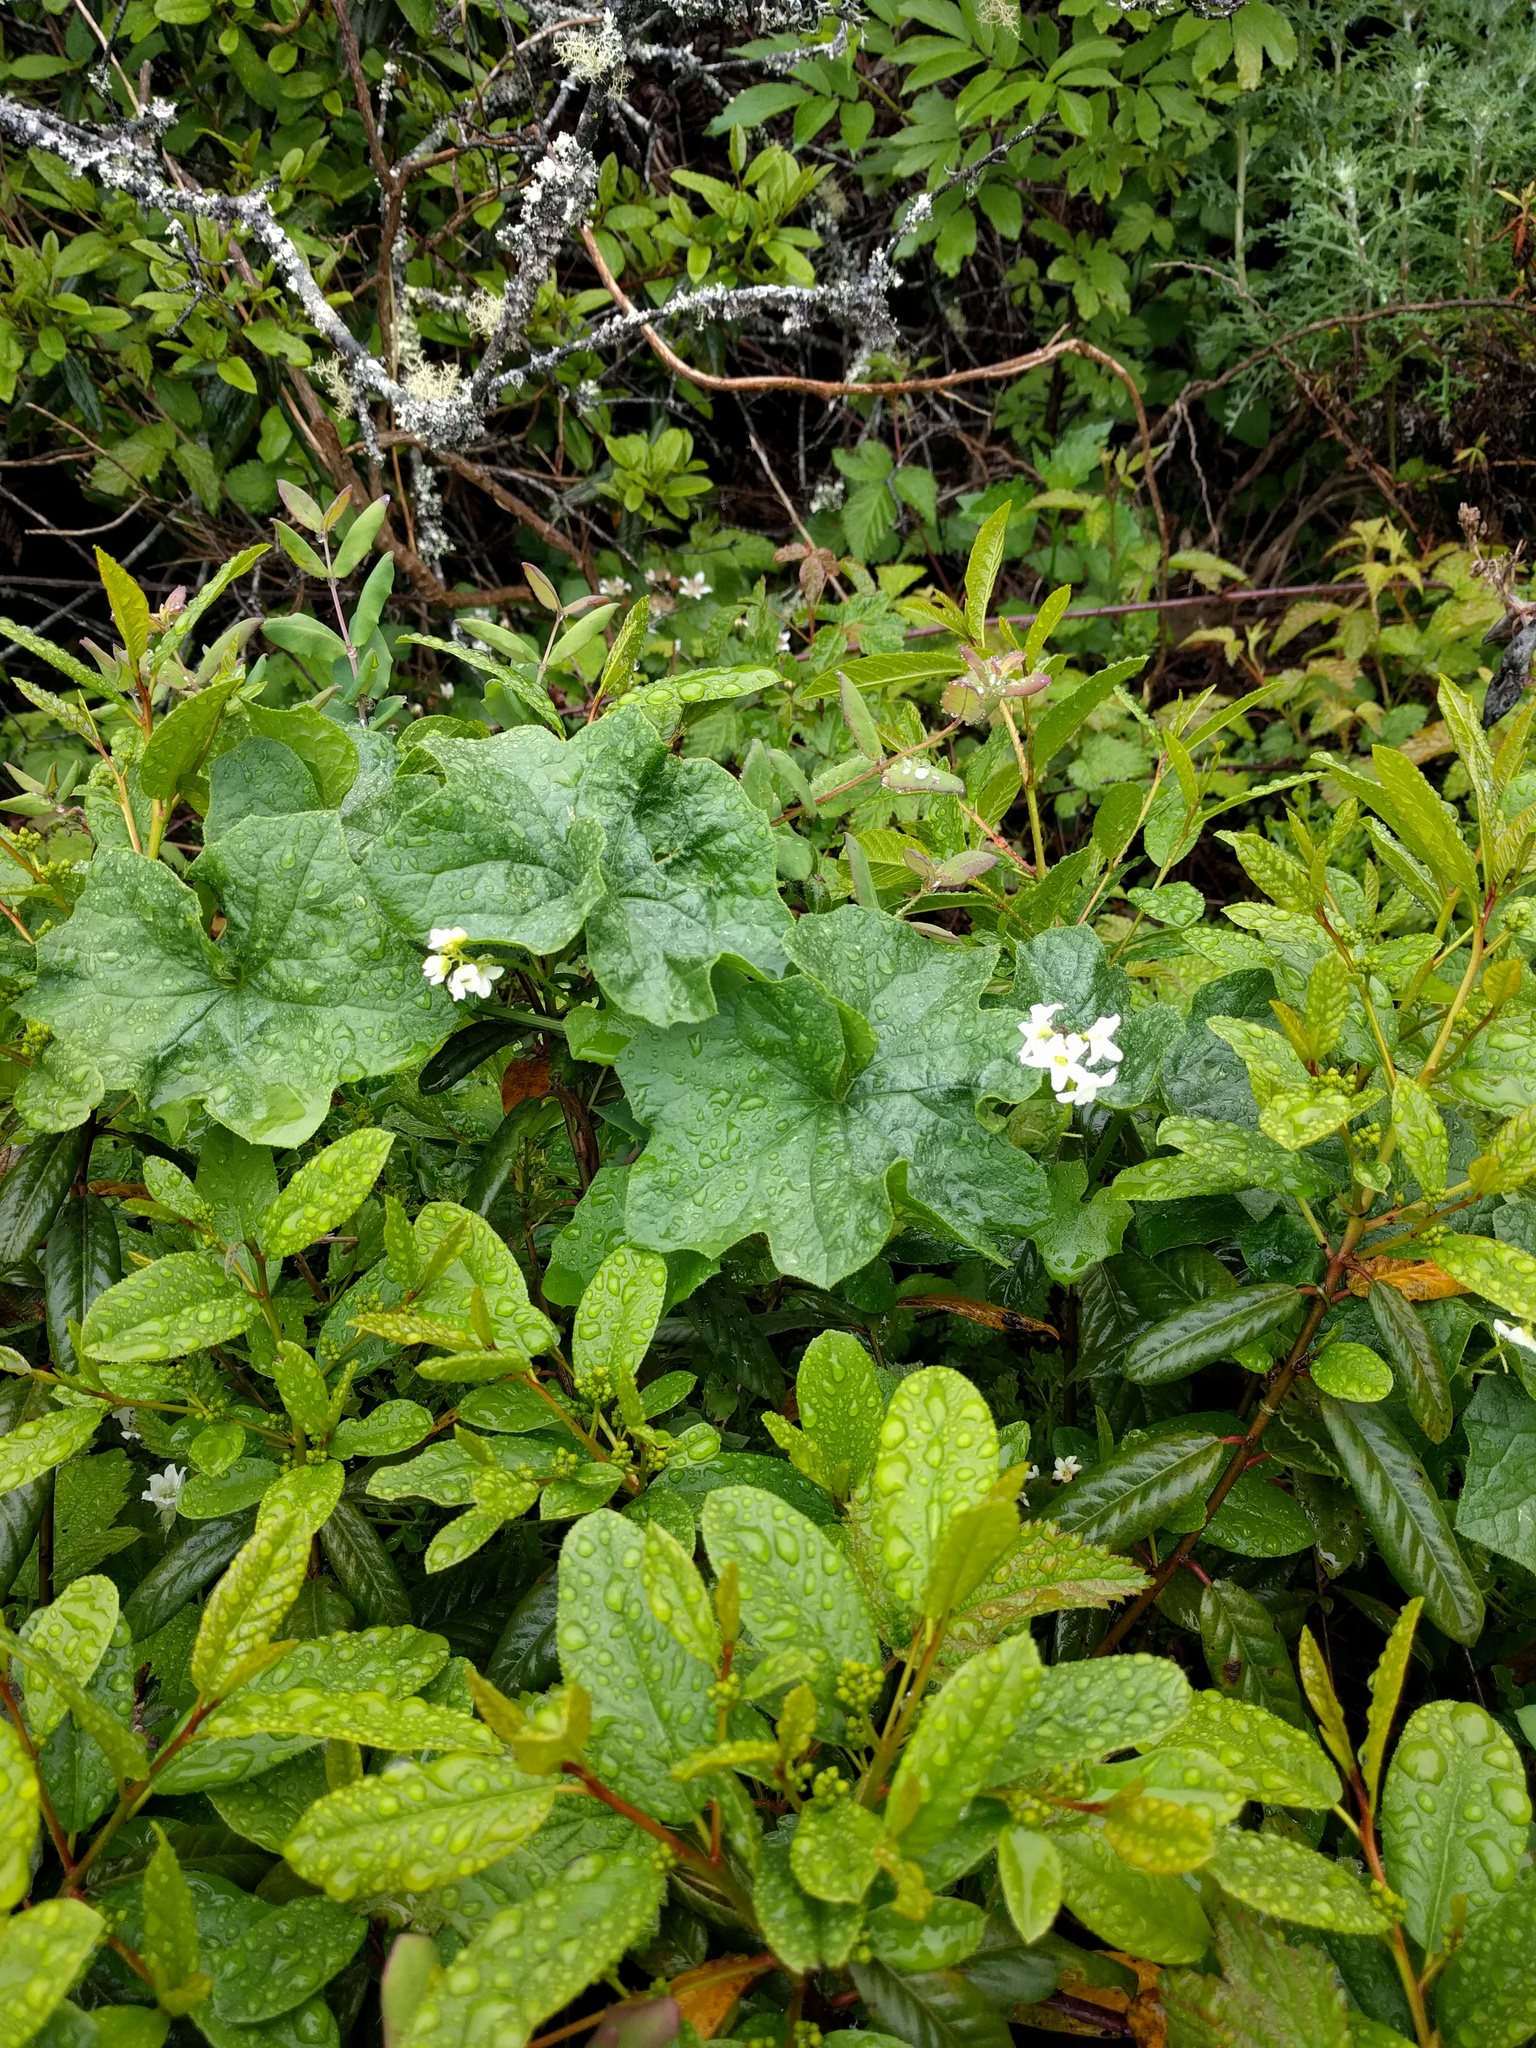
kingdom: Plantae
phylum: Tracheophyta
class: Magnoliopsida
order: Cucurbitales
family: Cucurbitaceae
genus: Marah
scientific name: Marah fabacea
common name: California manroot
